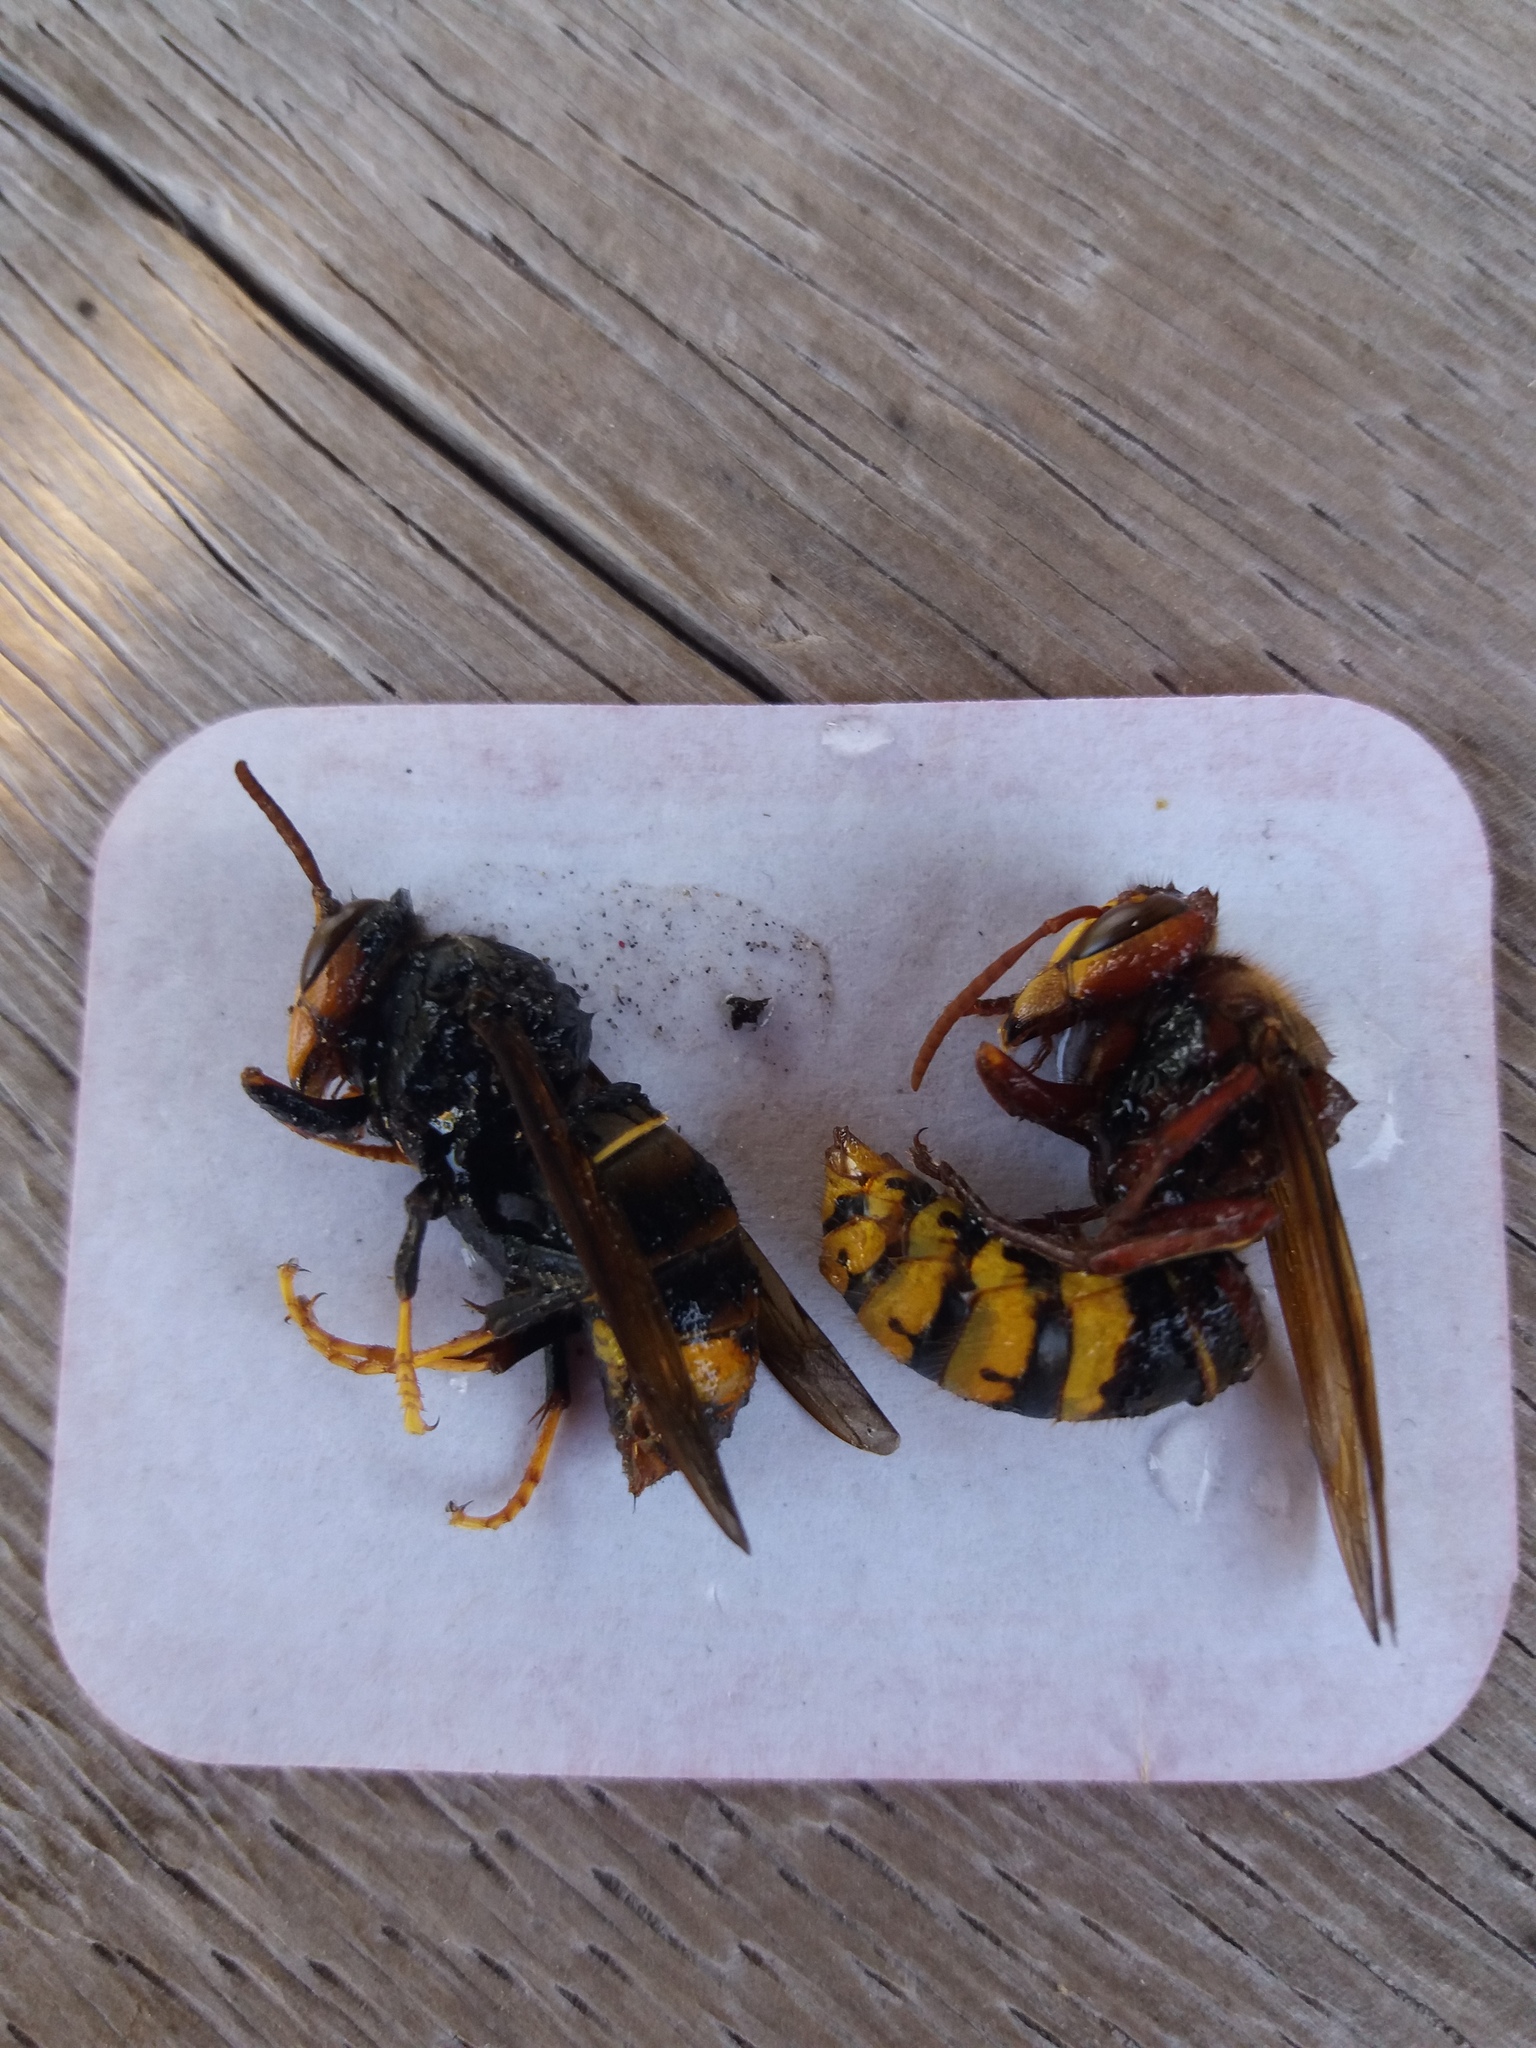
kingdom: Animalia
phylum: Arthropoda
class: Insecta
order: Hymenoptera
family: Vespidae
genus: Vespa
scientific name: Vespa velutina
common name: Asian hornet
